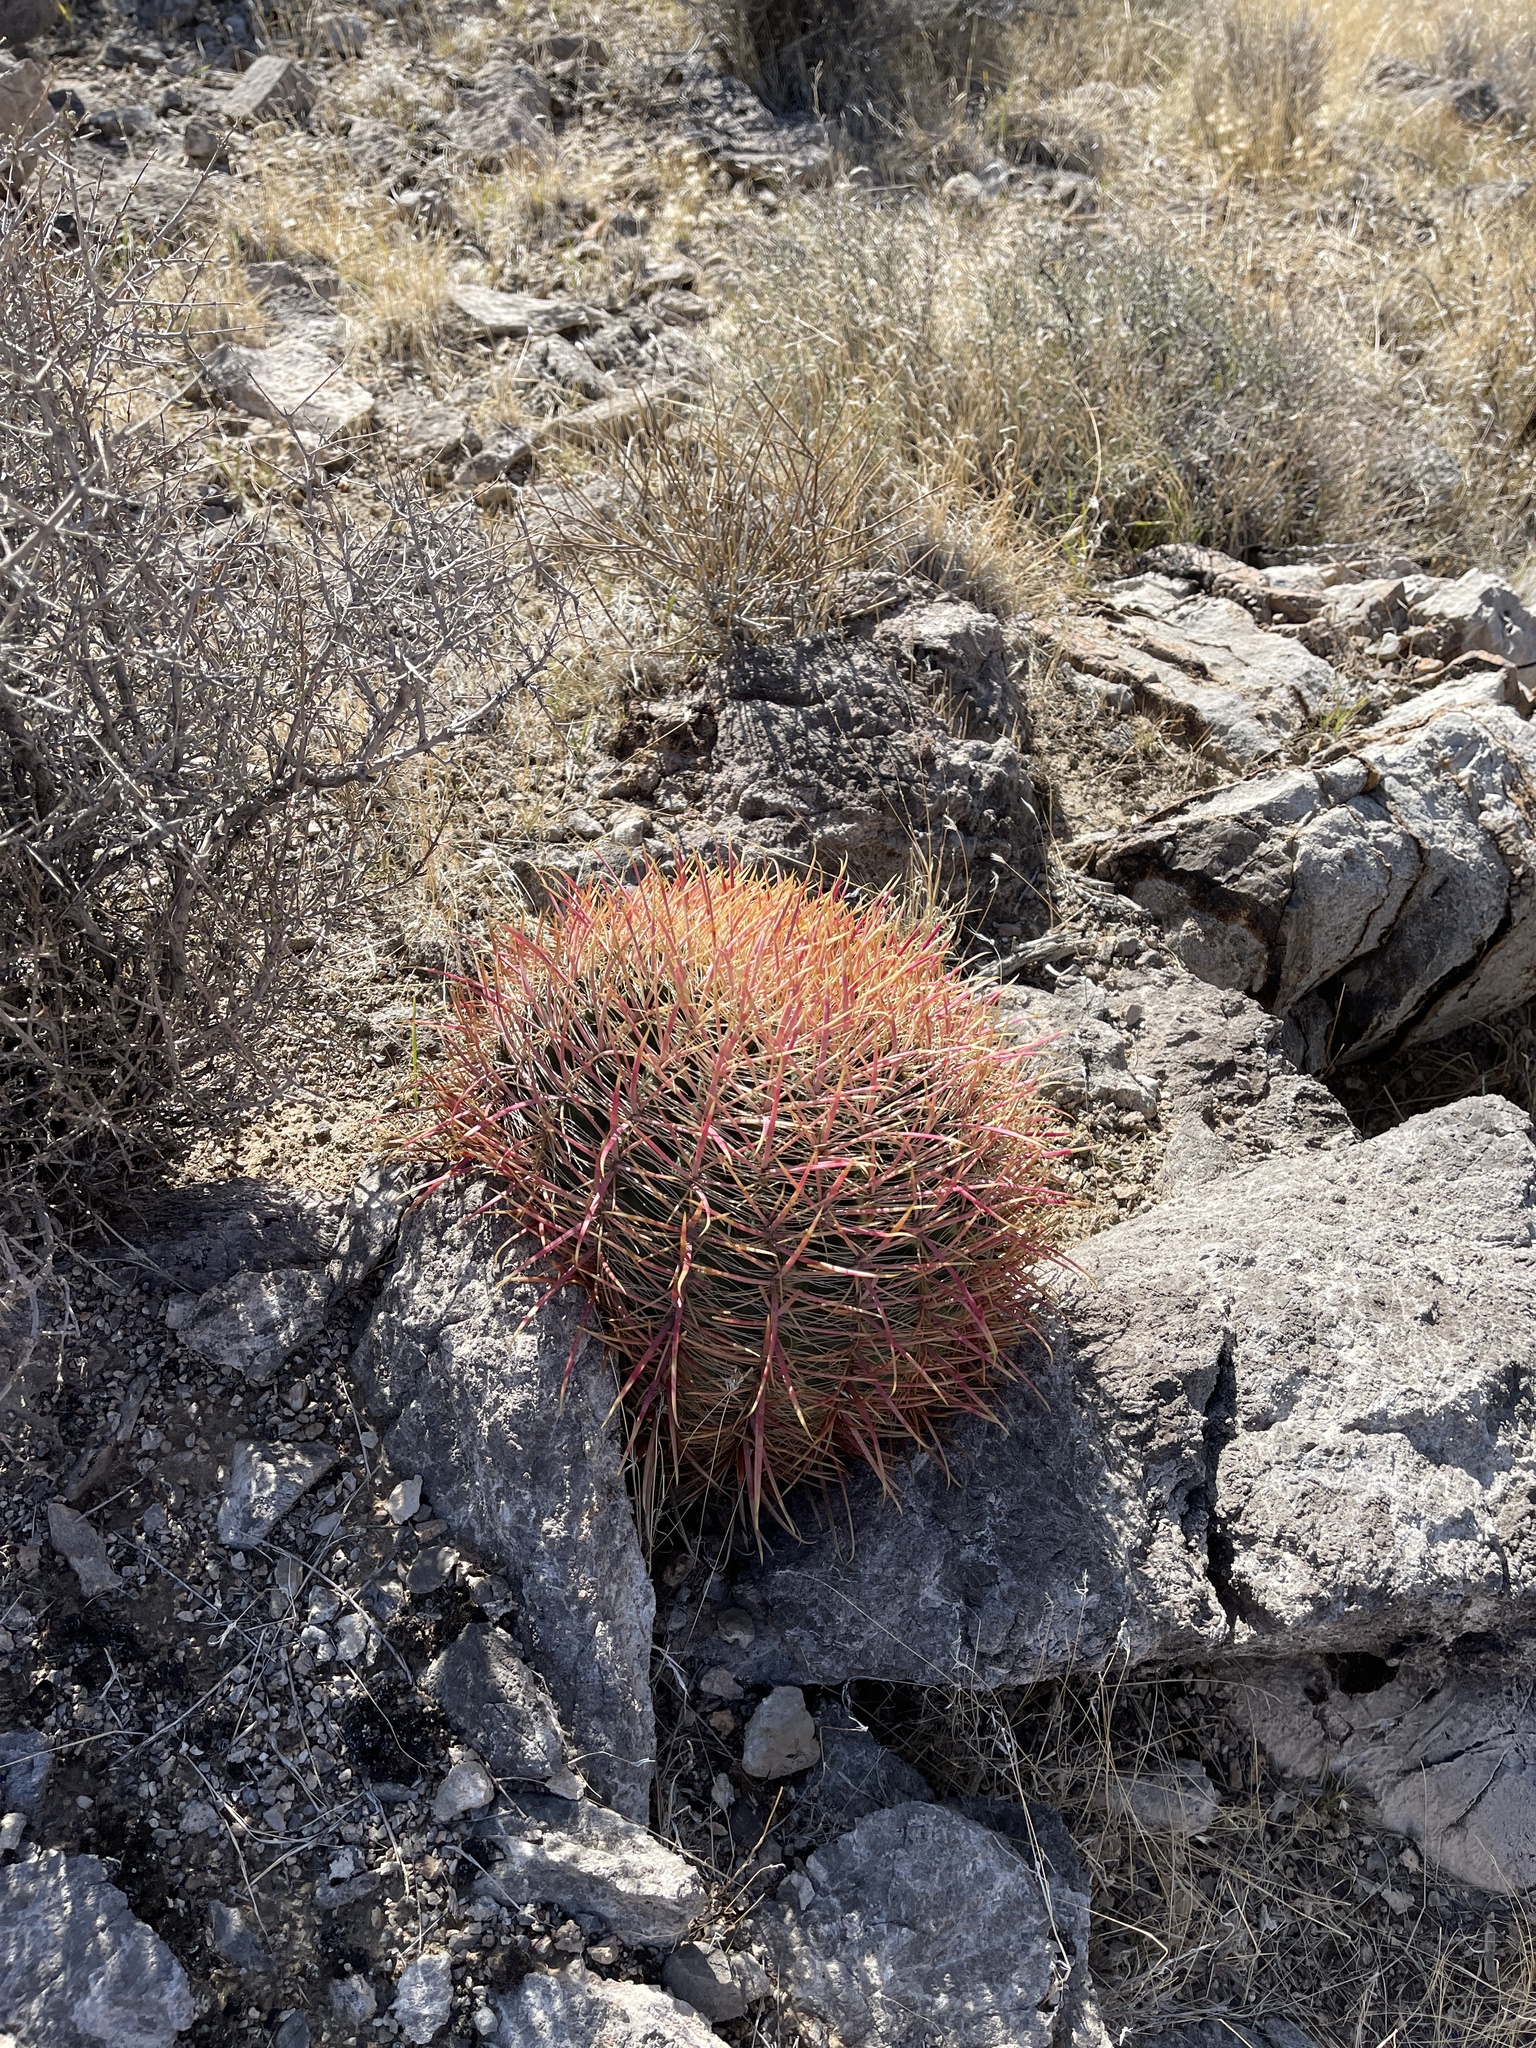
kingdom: Plantae
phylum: Tracheophyta
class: Magnoliopsida
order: Caryophyllales
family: Cactaceae
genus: Ferocactus
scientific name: Ferocactus cylindraceus
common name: California barrel cactus
